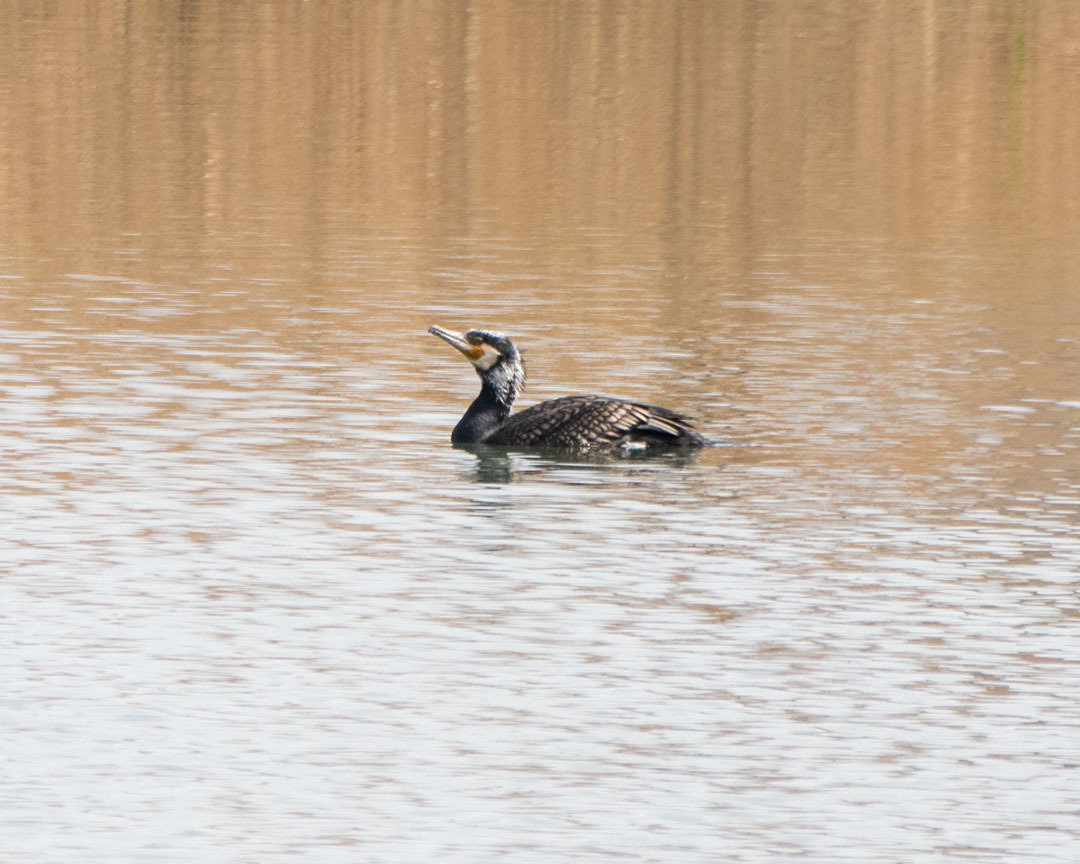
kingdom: Animalia
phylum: Chordata
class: Aves
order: Suliformes
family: Phalacrocoracidae
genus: Phalacrocorax
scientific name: Phalacrocorax carbo
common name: Great cormorant
